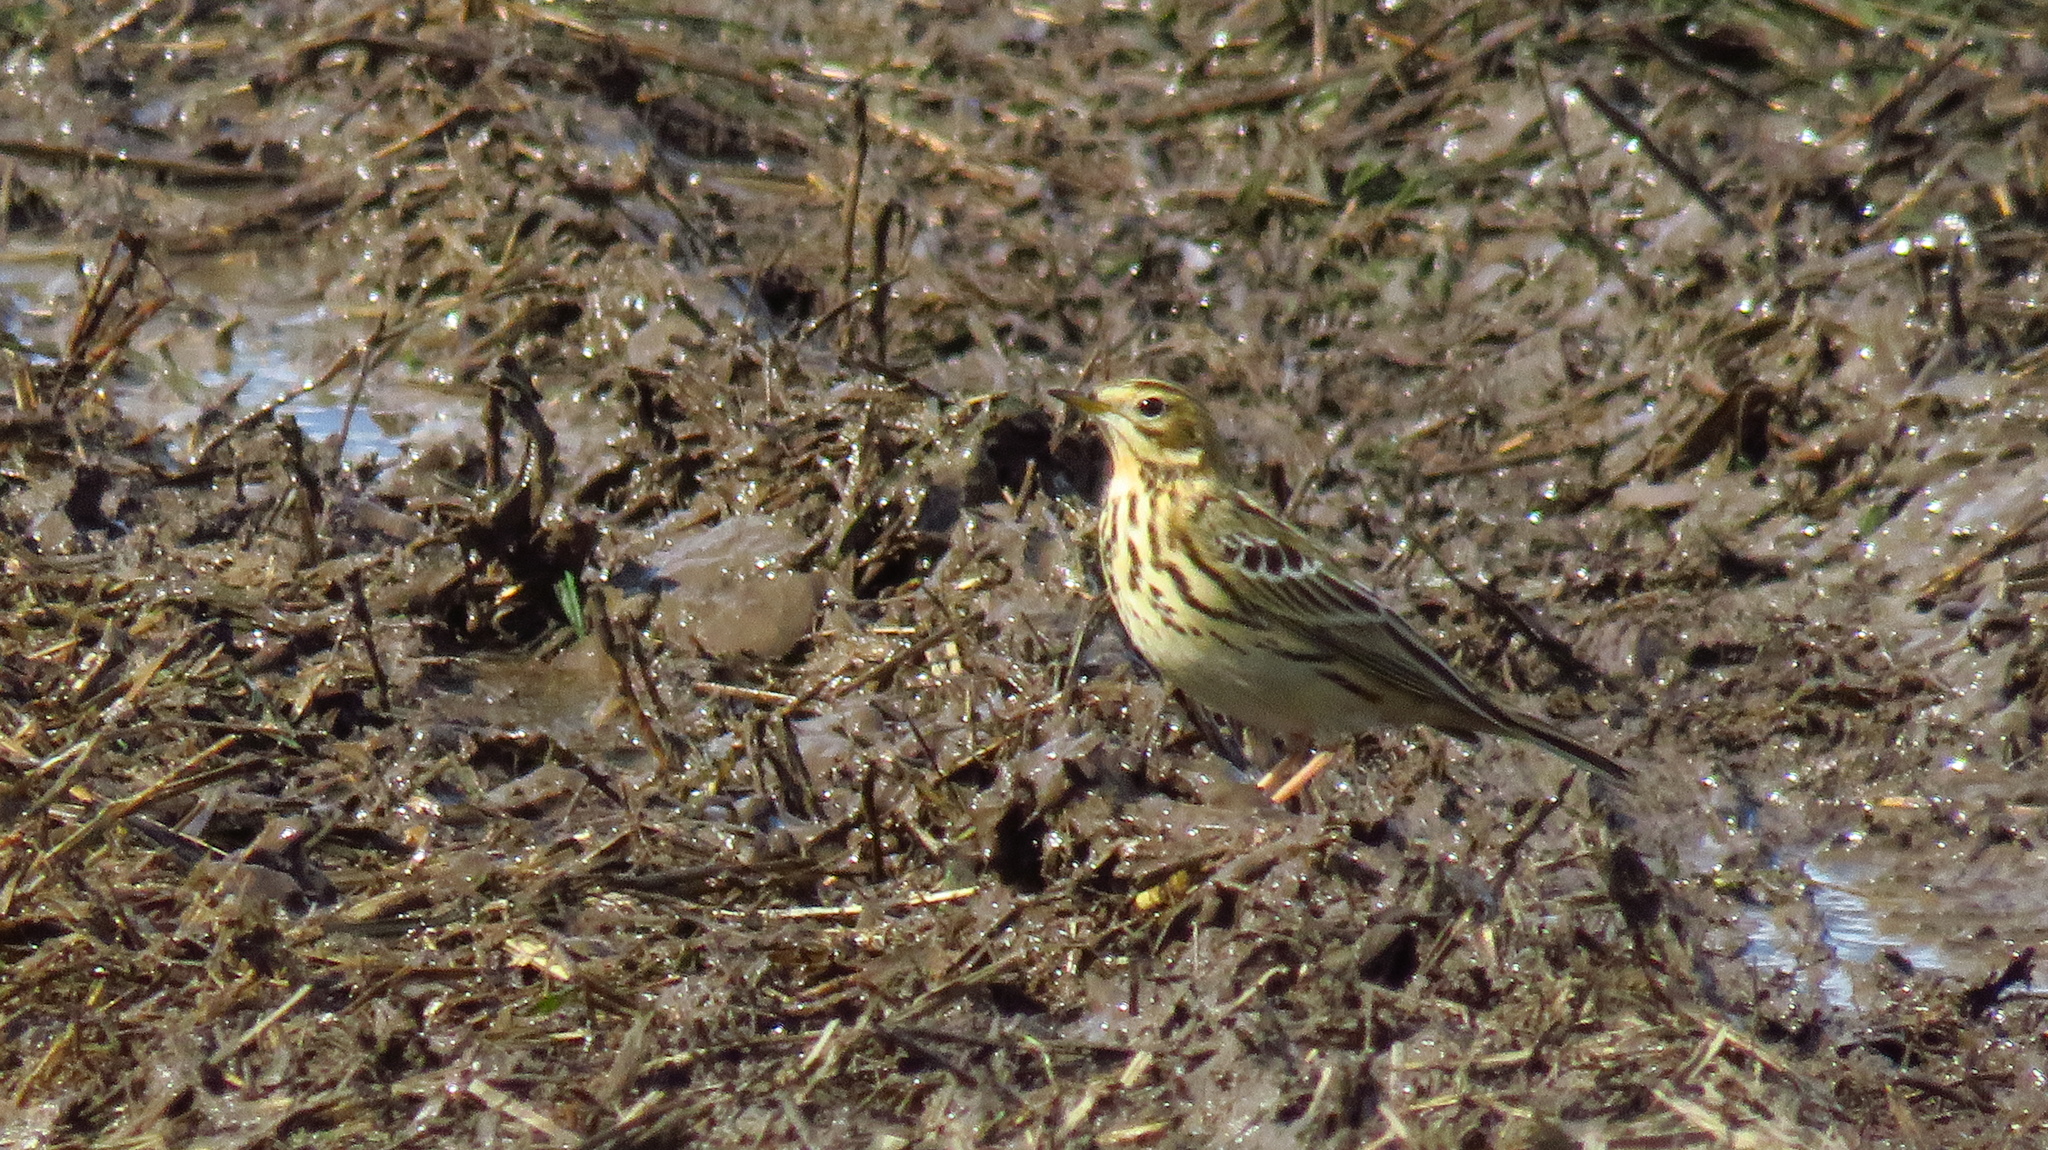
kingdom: Animalia
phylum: Chordata
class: Aves
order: Passeriformes
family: Motacillidae
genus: Anthus
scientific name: Anthus pratensis
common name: Meadow pipit
